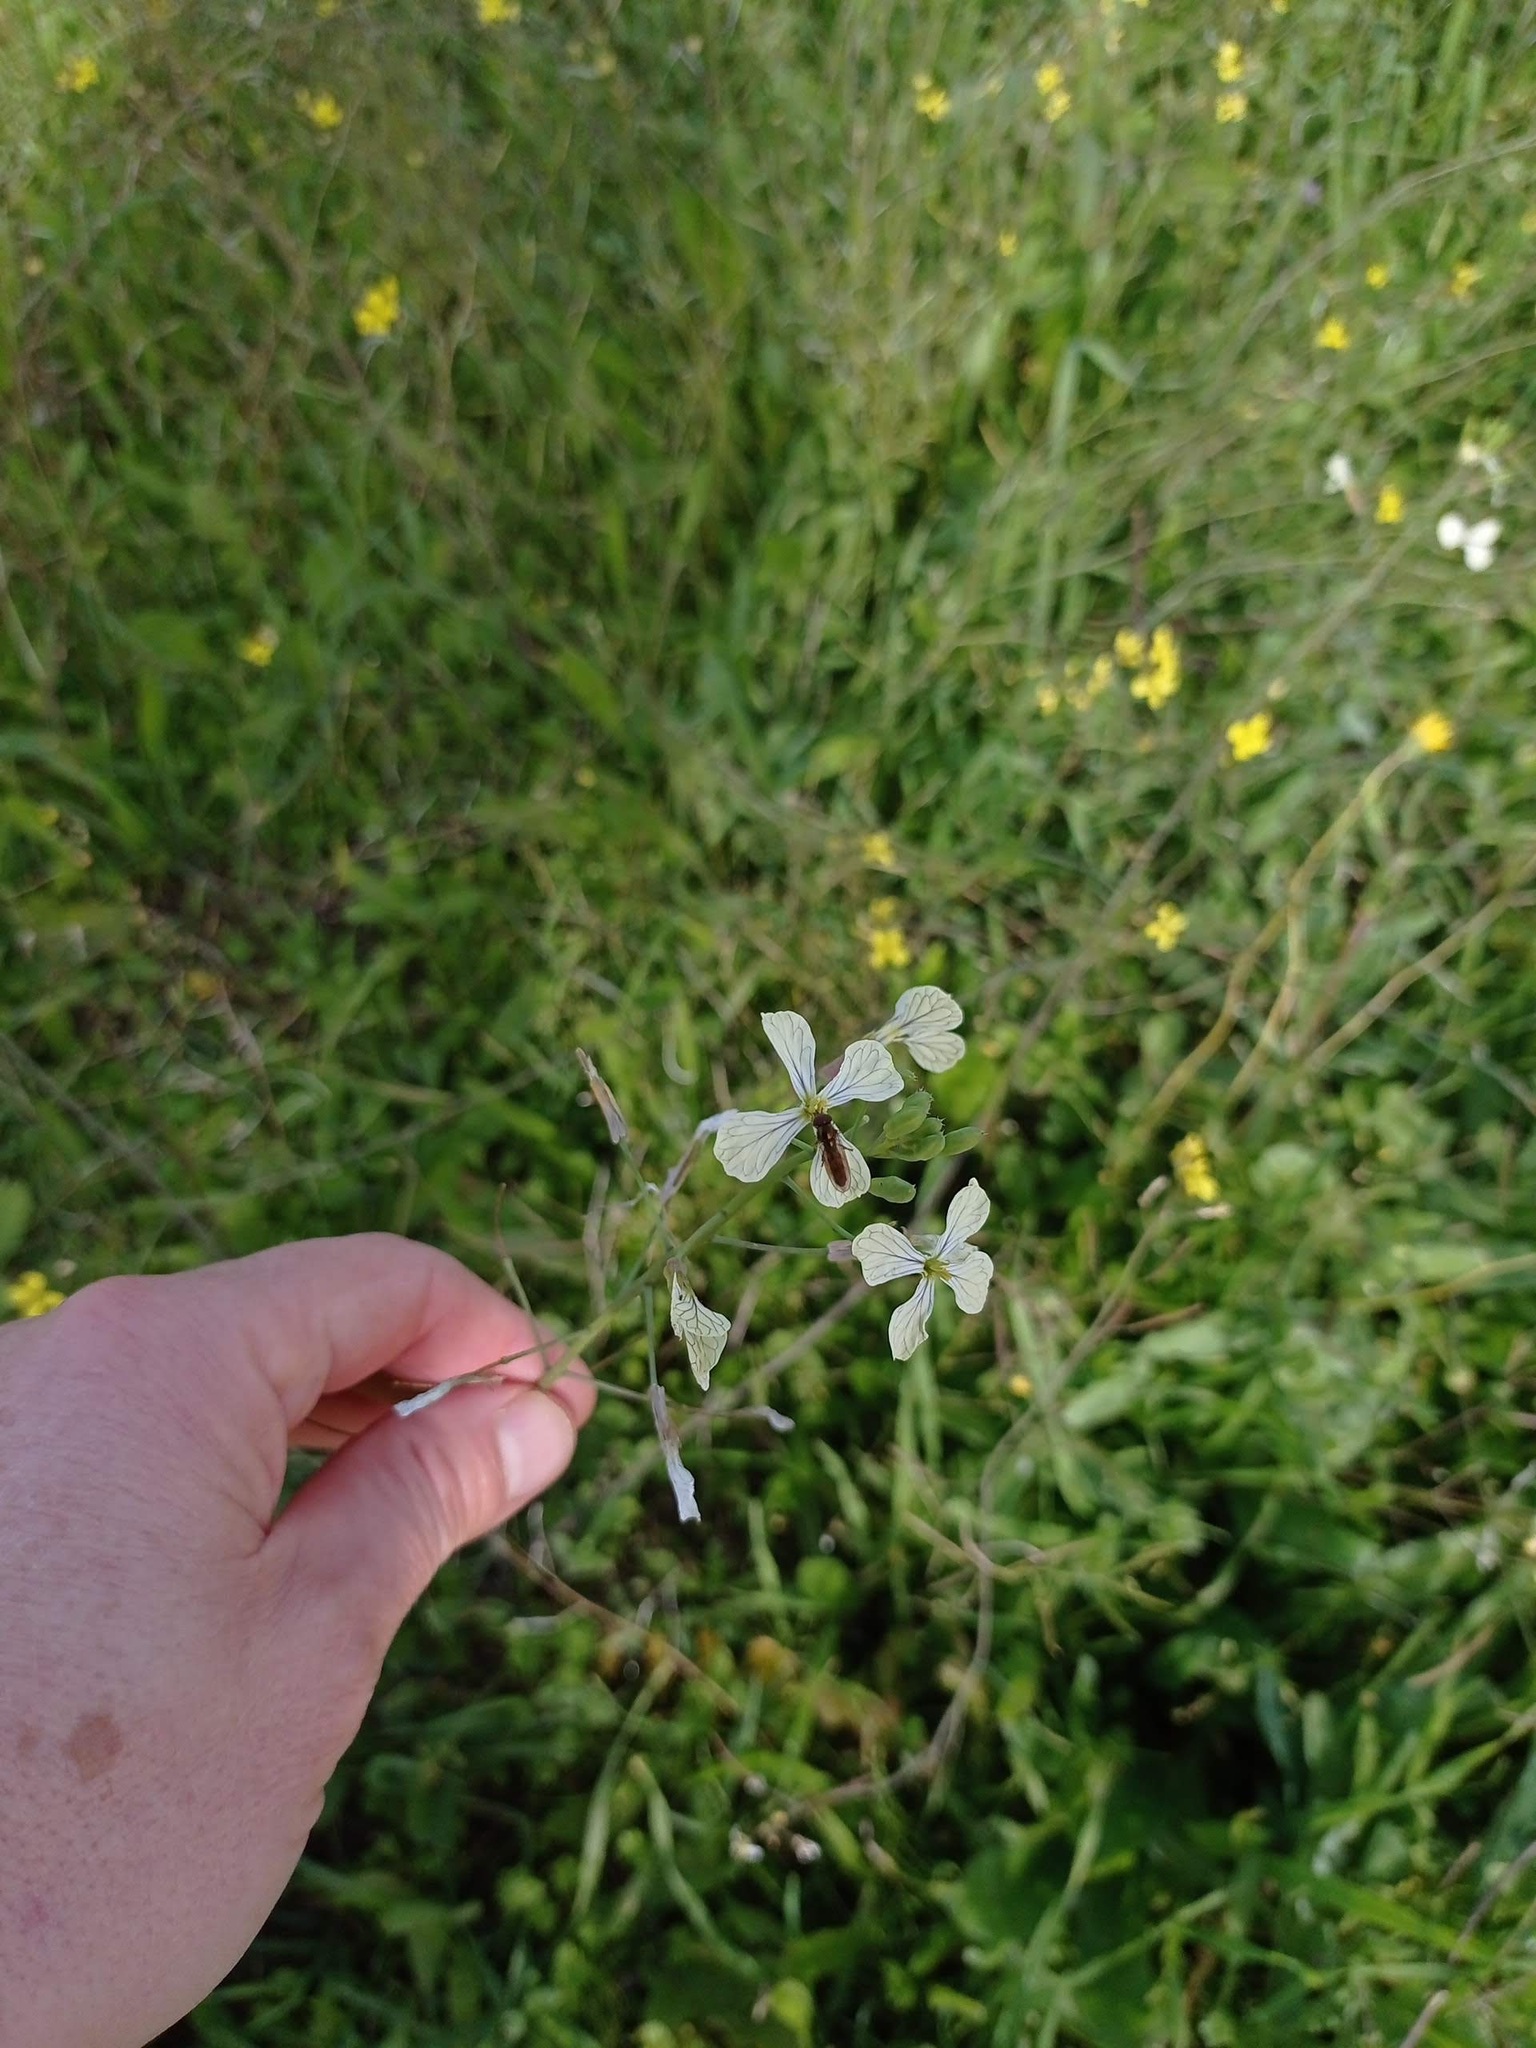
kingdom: Plantae
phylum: Tracheophyta
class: Magnoliopsida
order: Brassicales
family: Brassicaceae
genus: Raphanus
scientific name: Raphanus raphanistrum
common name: Wild radish
